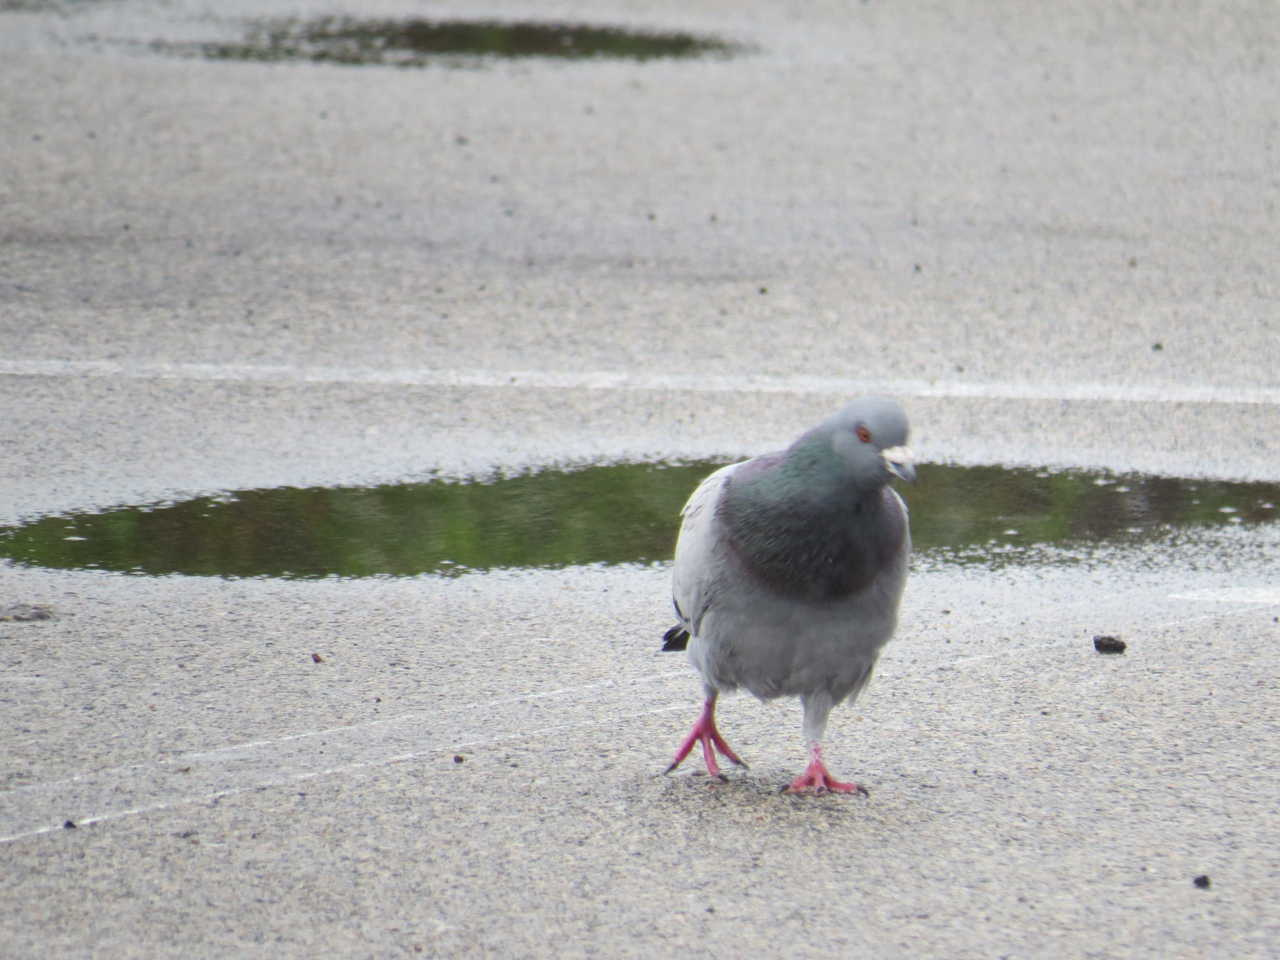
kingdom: Animalia
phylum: Chordata
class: Aves
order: Columbiformes
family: Columbidae
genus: Columba
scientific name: Columba livia
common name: Rock pigeon
